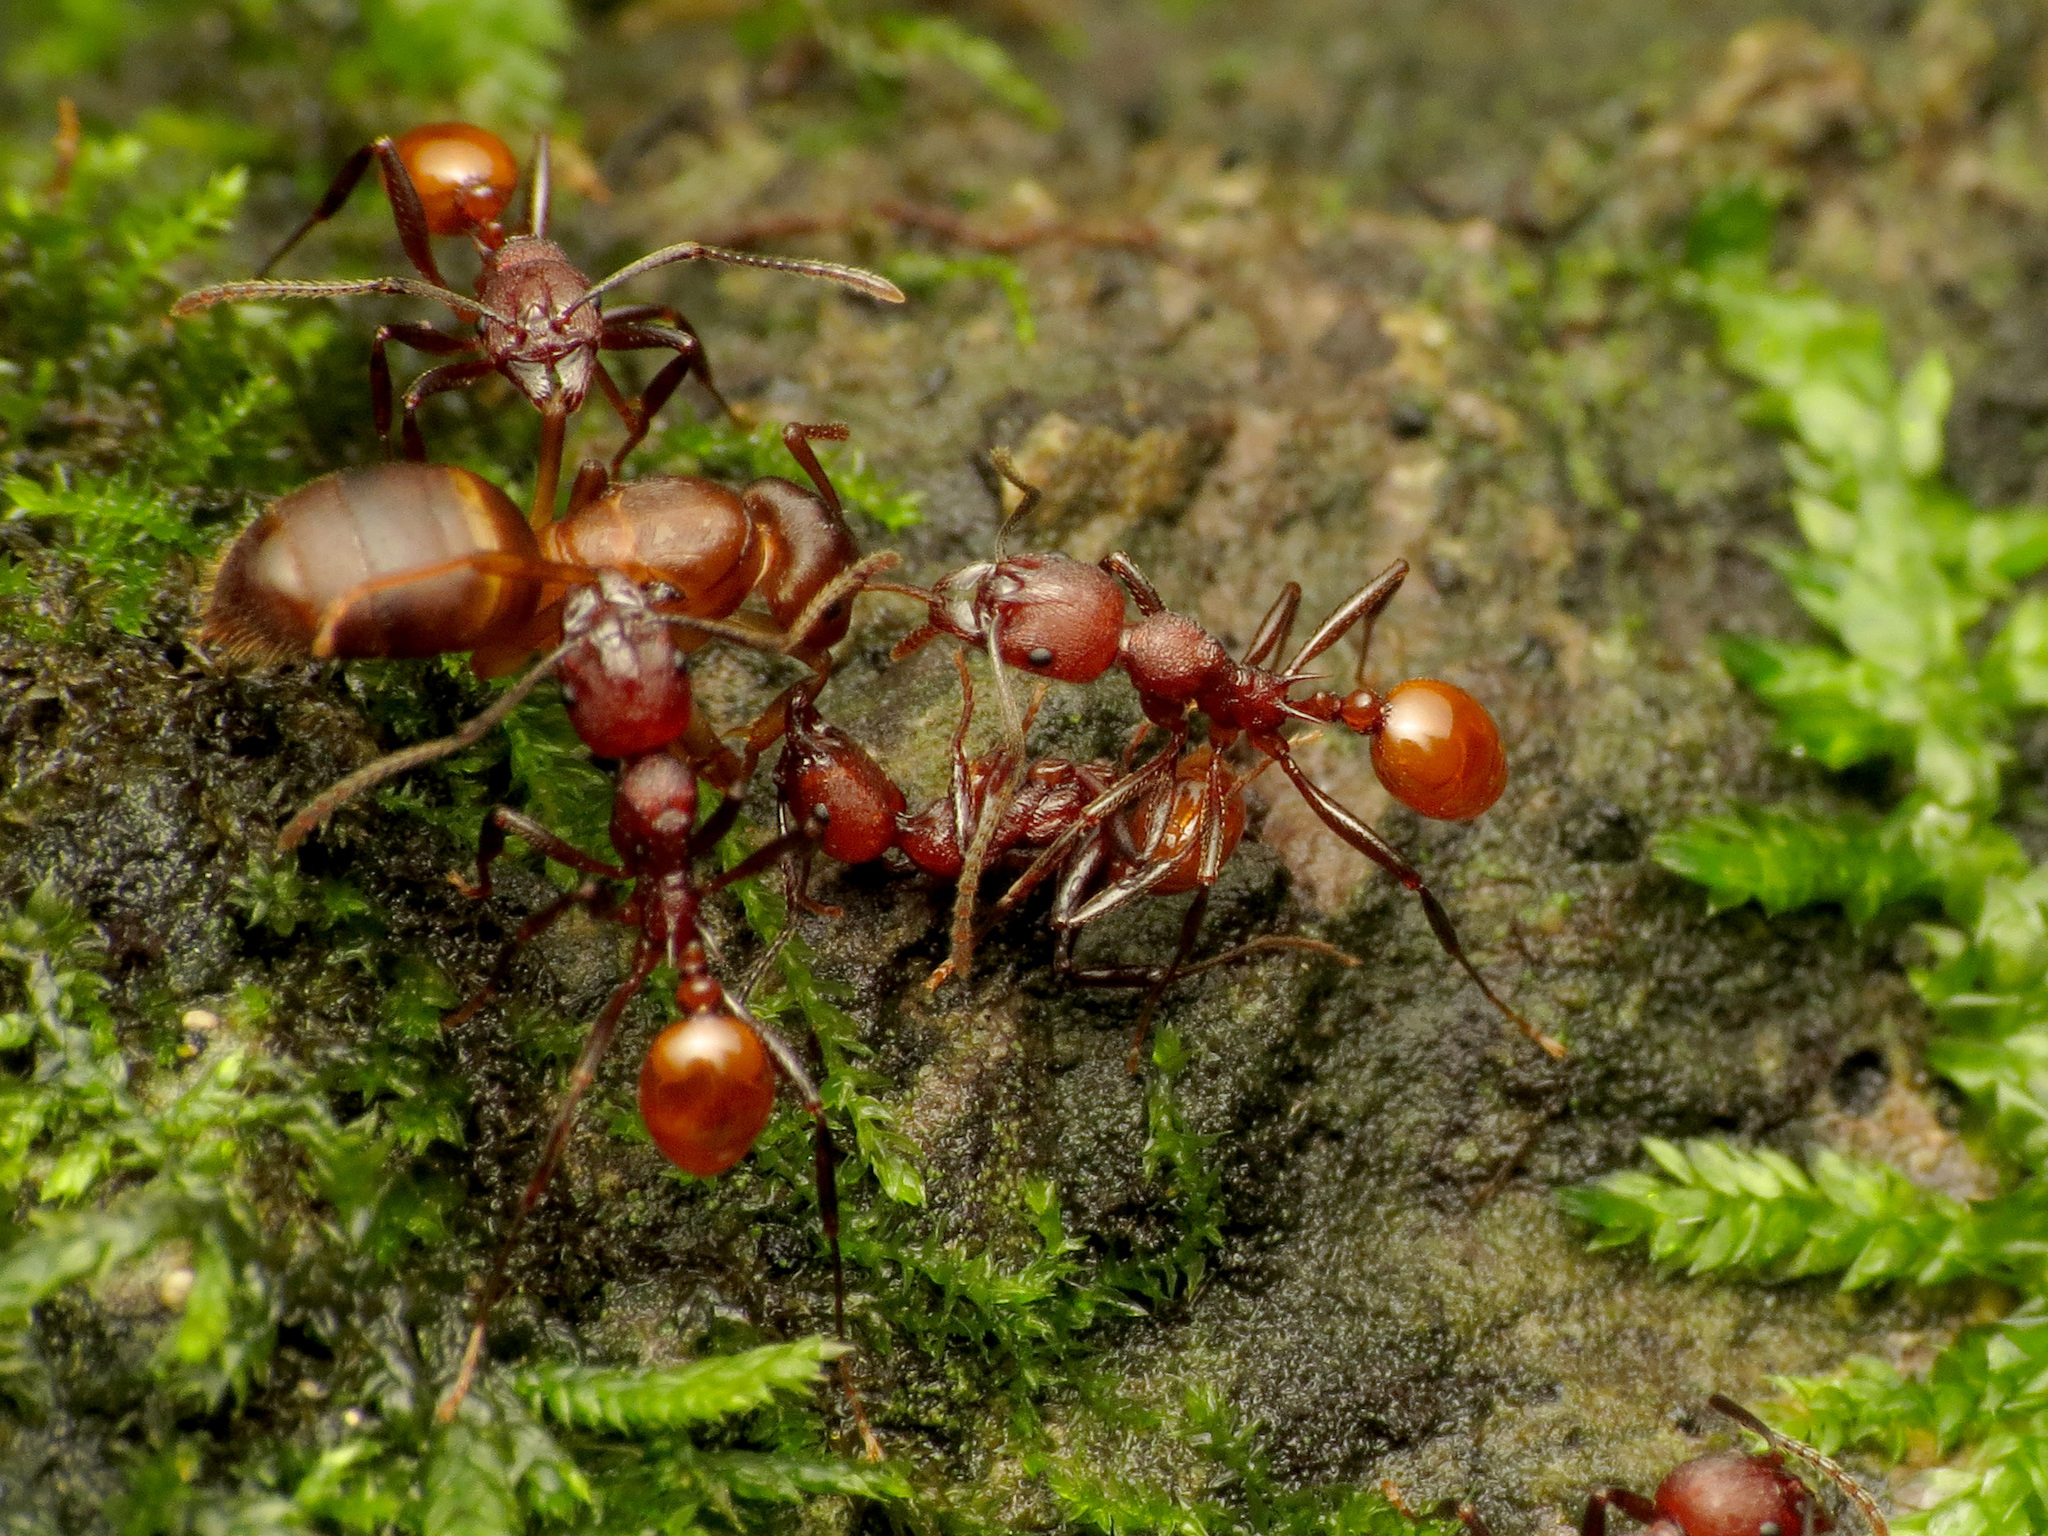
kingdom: Animalia
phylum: Arthropoda
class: Insecta
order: Hymenoptera
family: Formicidae
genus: Aphaenogaster
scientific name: Aphaenogaster tennesseensis
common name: Tennessee thread-waisted ant
